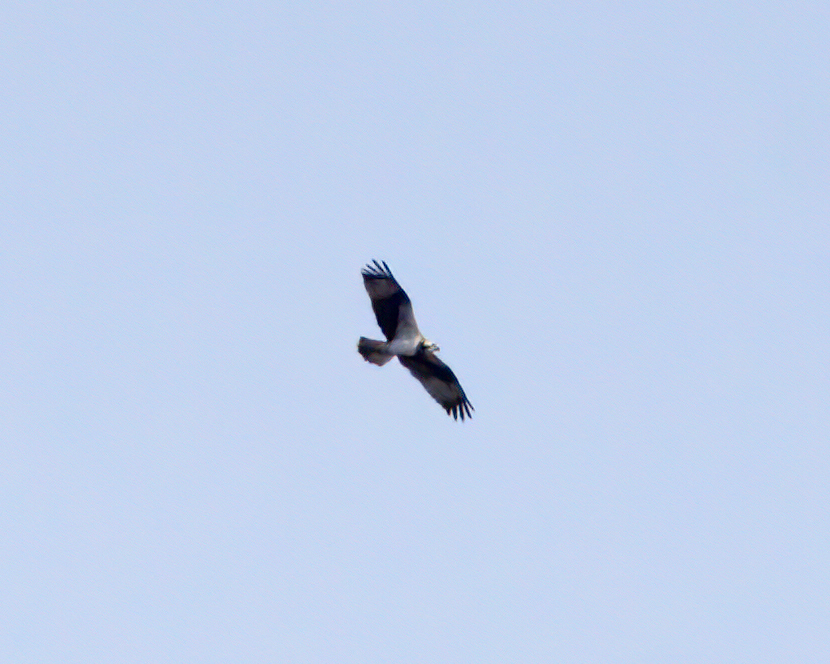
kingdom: Animalia
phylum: Chordata
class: Aves
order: Accipitriformes
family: Pandionidae
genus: Pandion
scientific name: Pandion haliaetus
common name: Osprey
